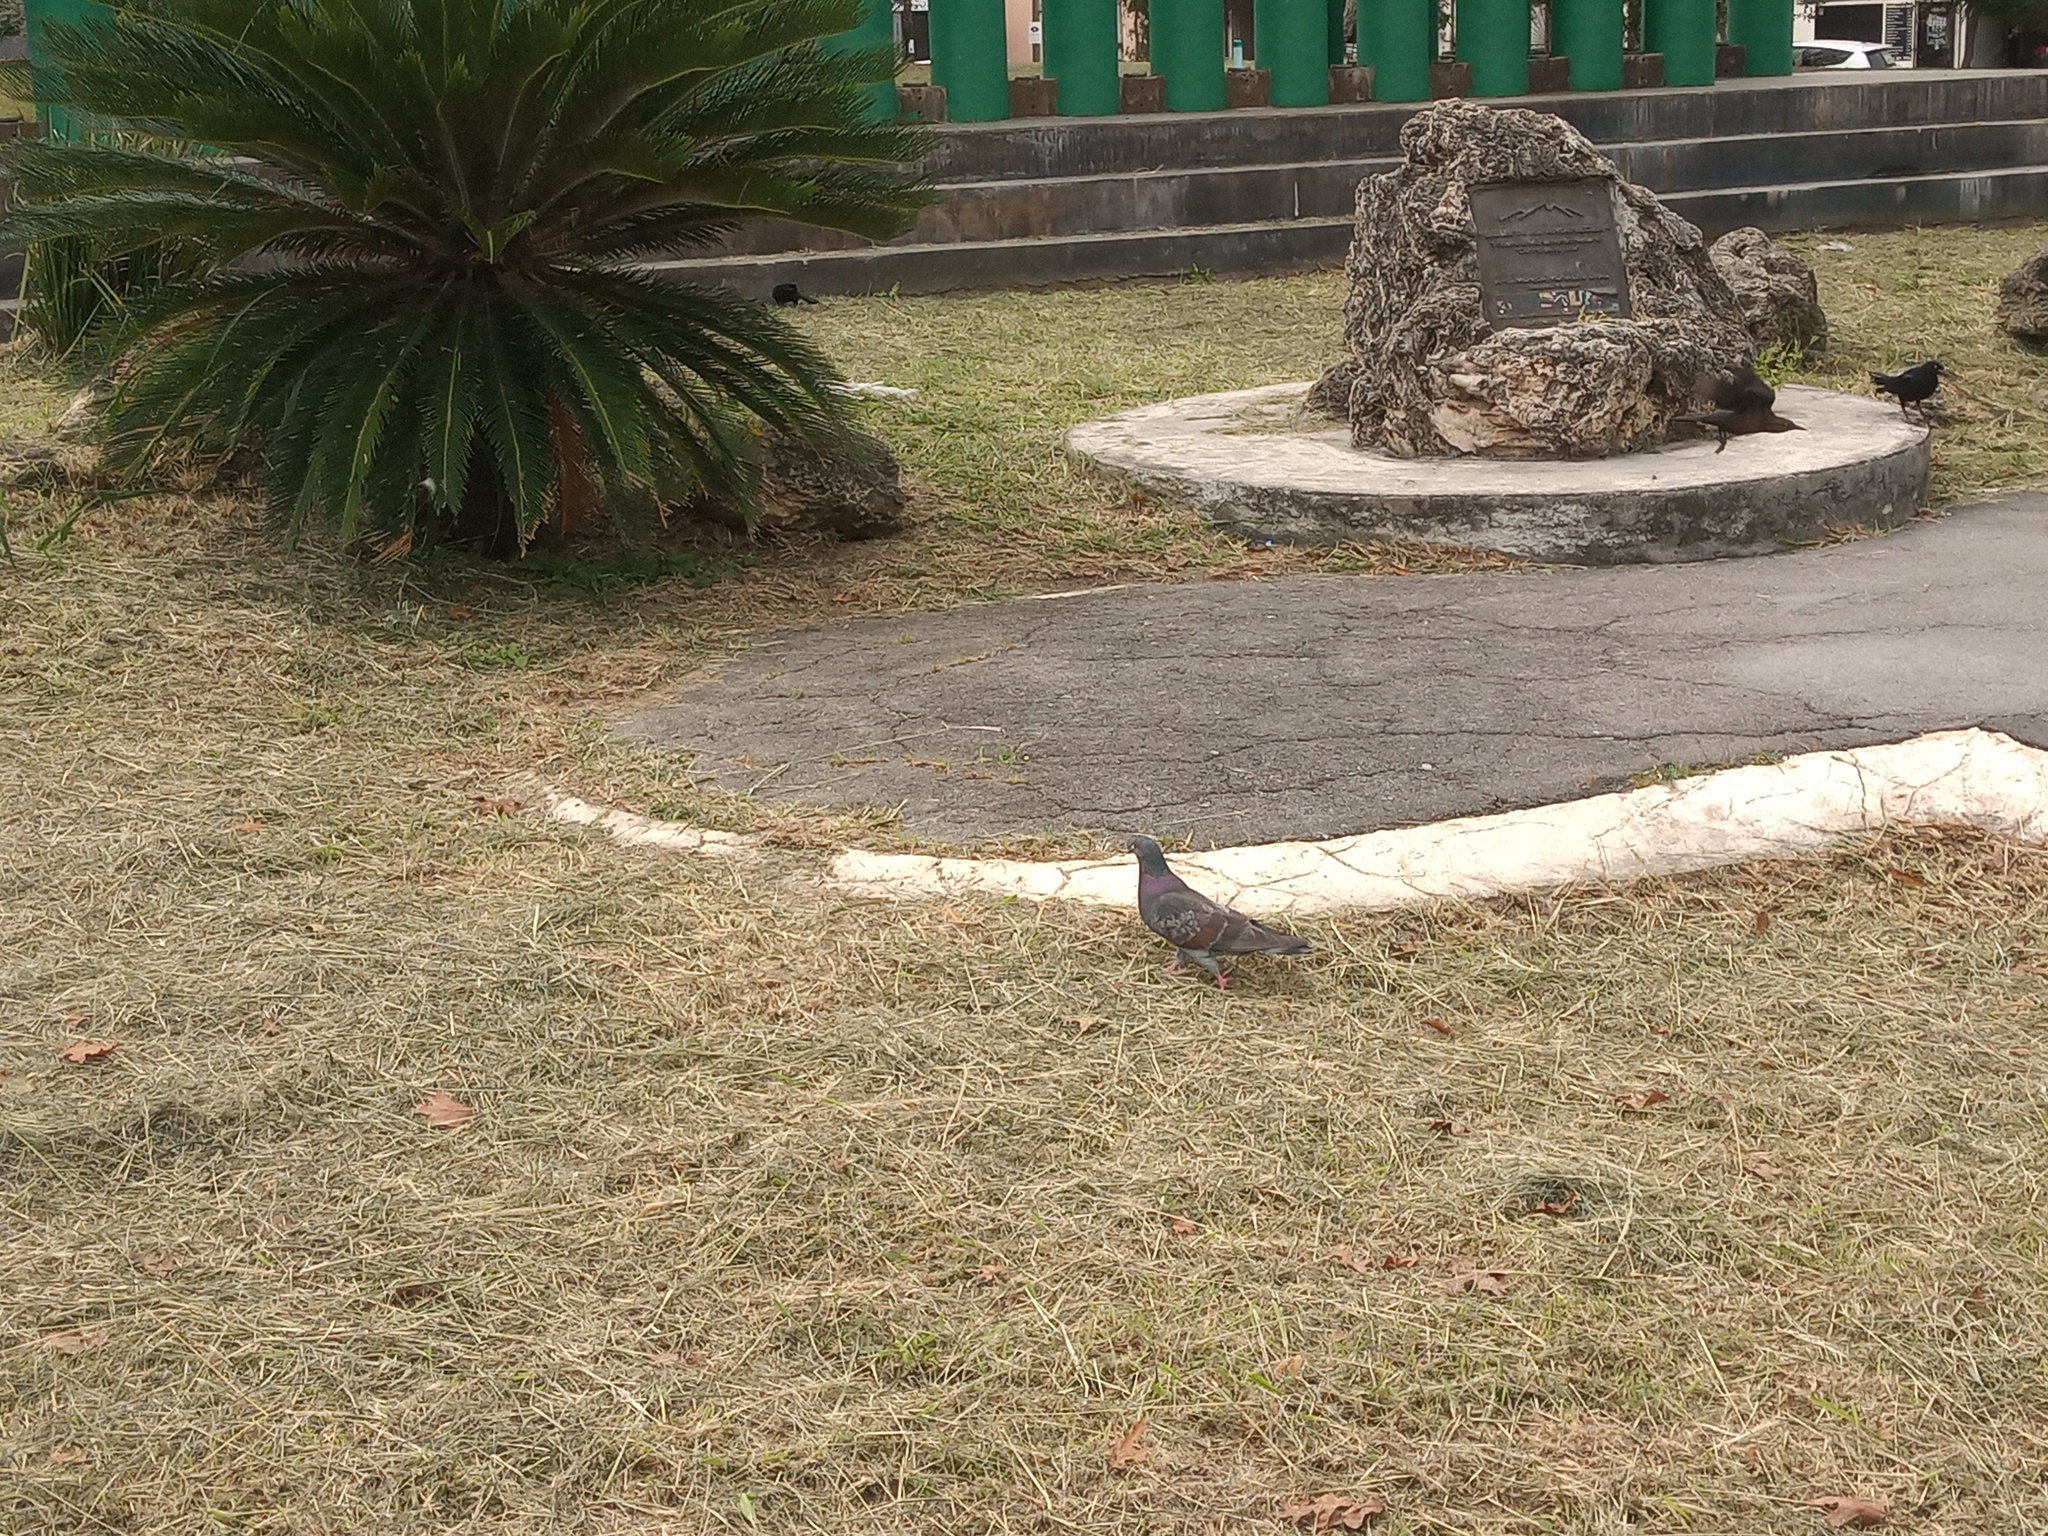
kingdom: Animalia
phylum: Chordata
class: Aves
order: Columbiformes
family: Columbidae
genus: Columba
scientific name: Columba livia
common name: Rock pigeon
